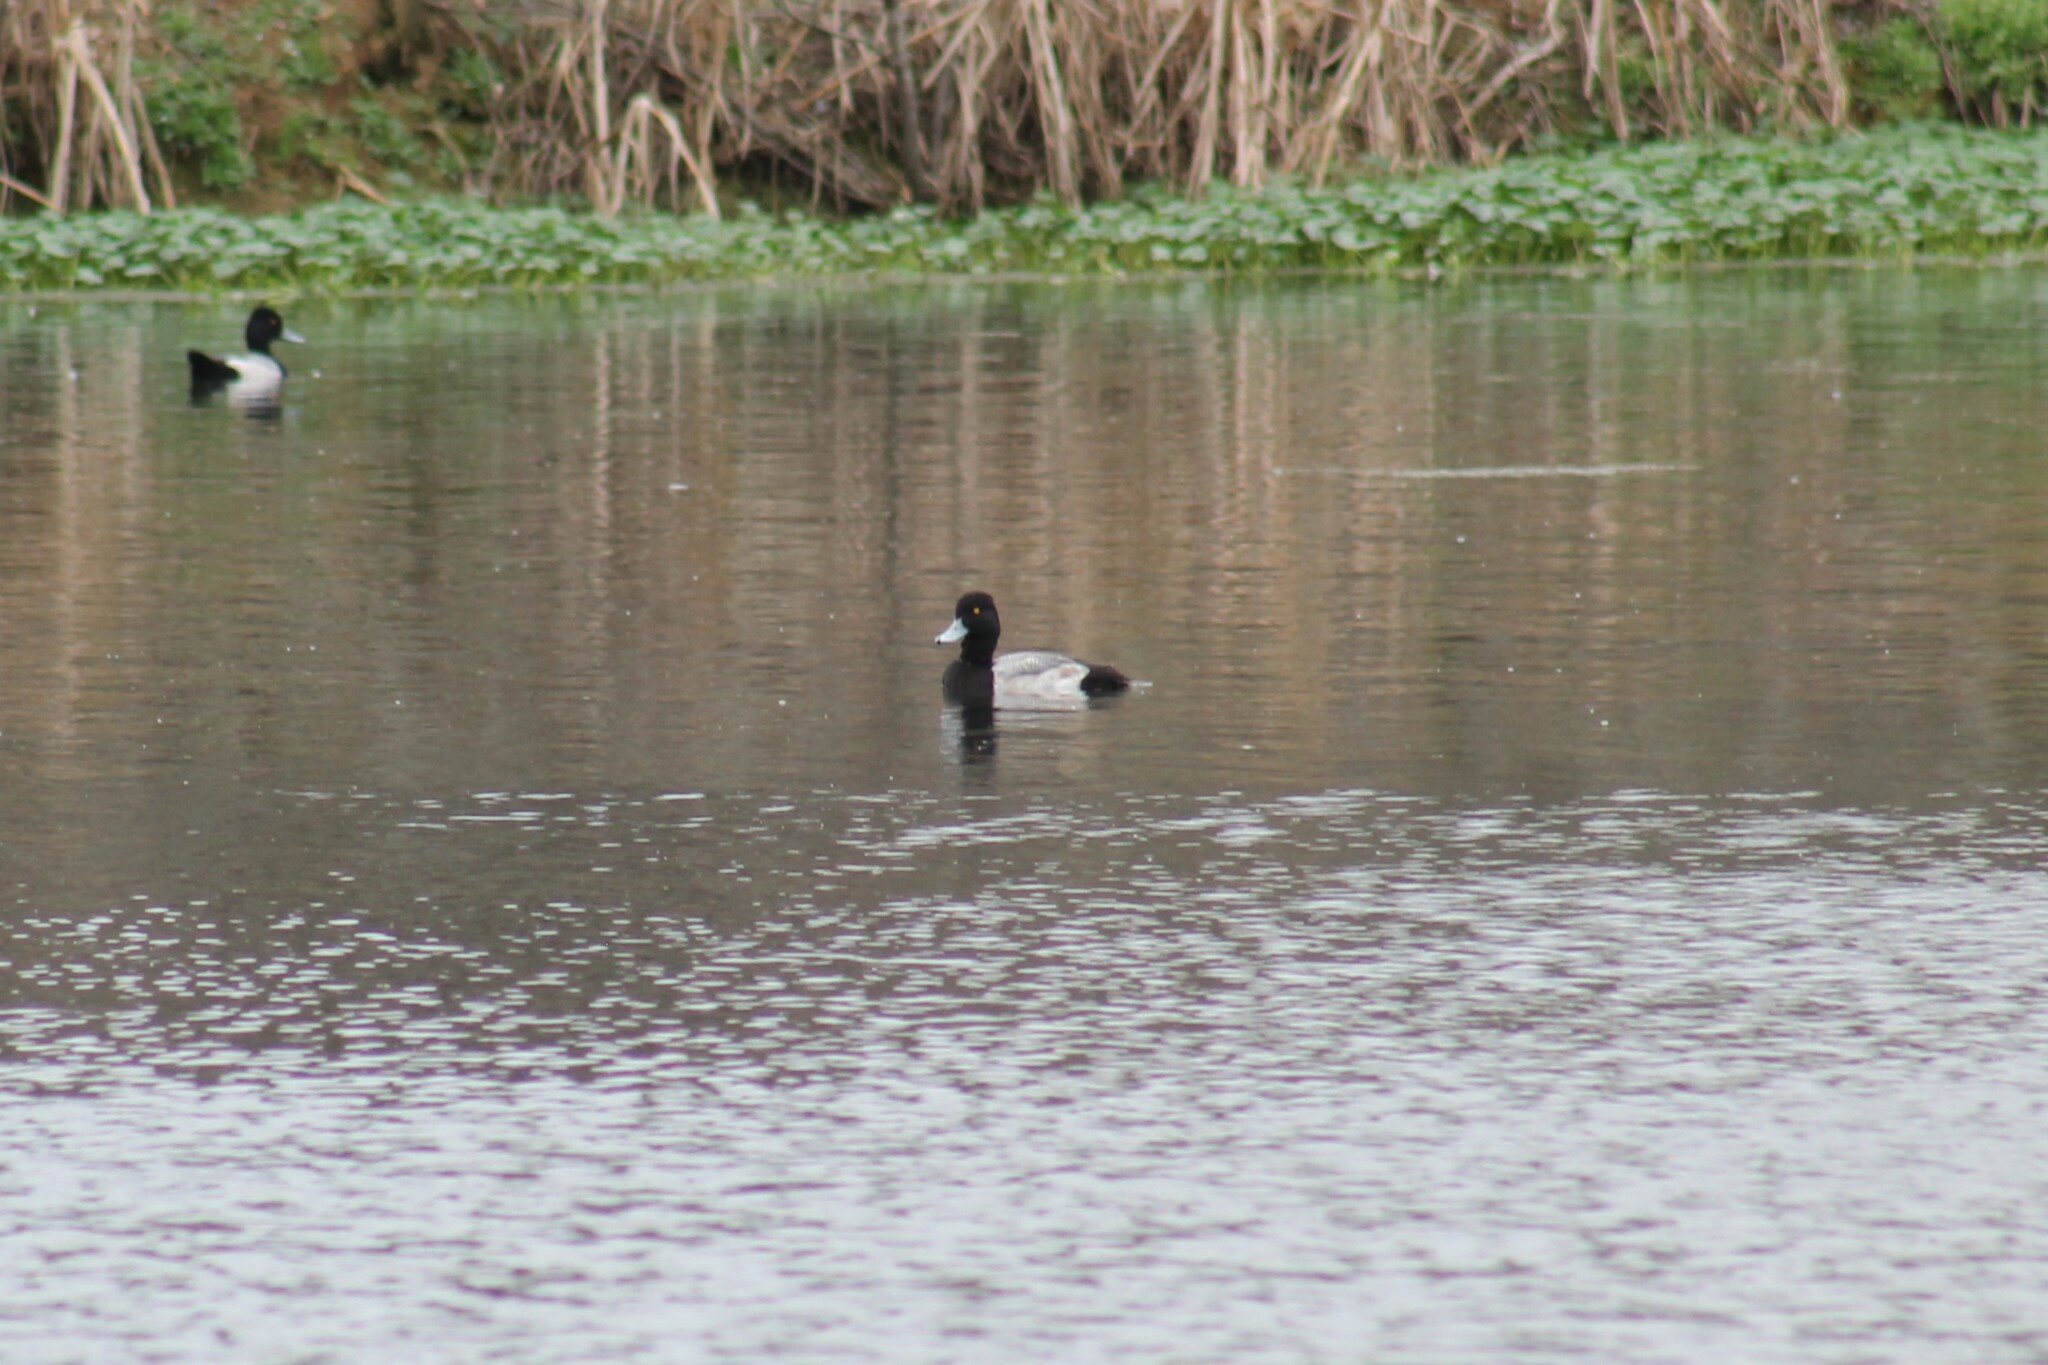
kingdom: Animalia
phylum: Chordata
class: Aves
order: Anseriformes
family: Anatidae
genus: Aythya
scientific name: Aythya affinis
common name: Lesser scaup
